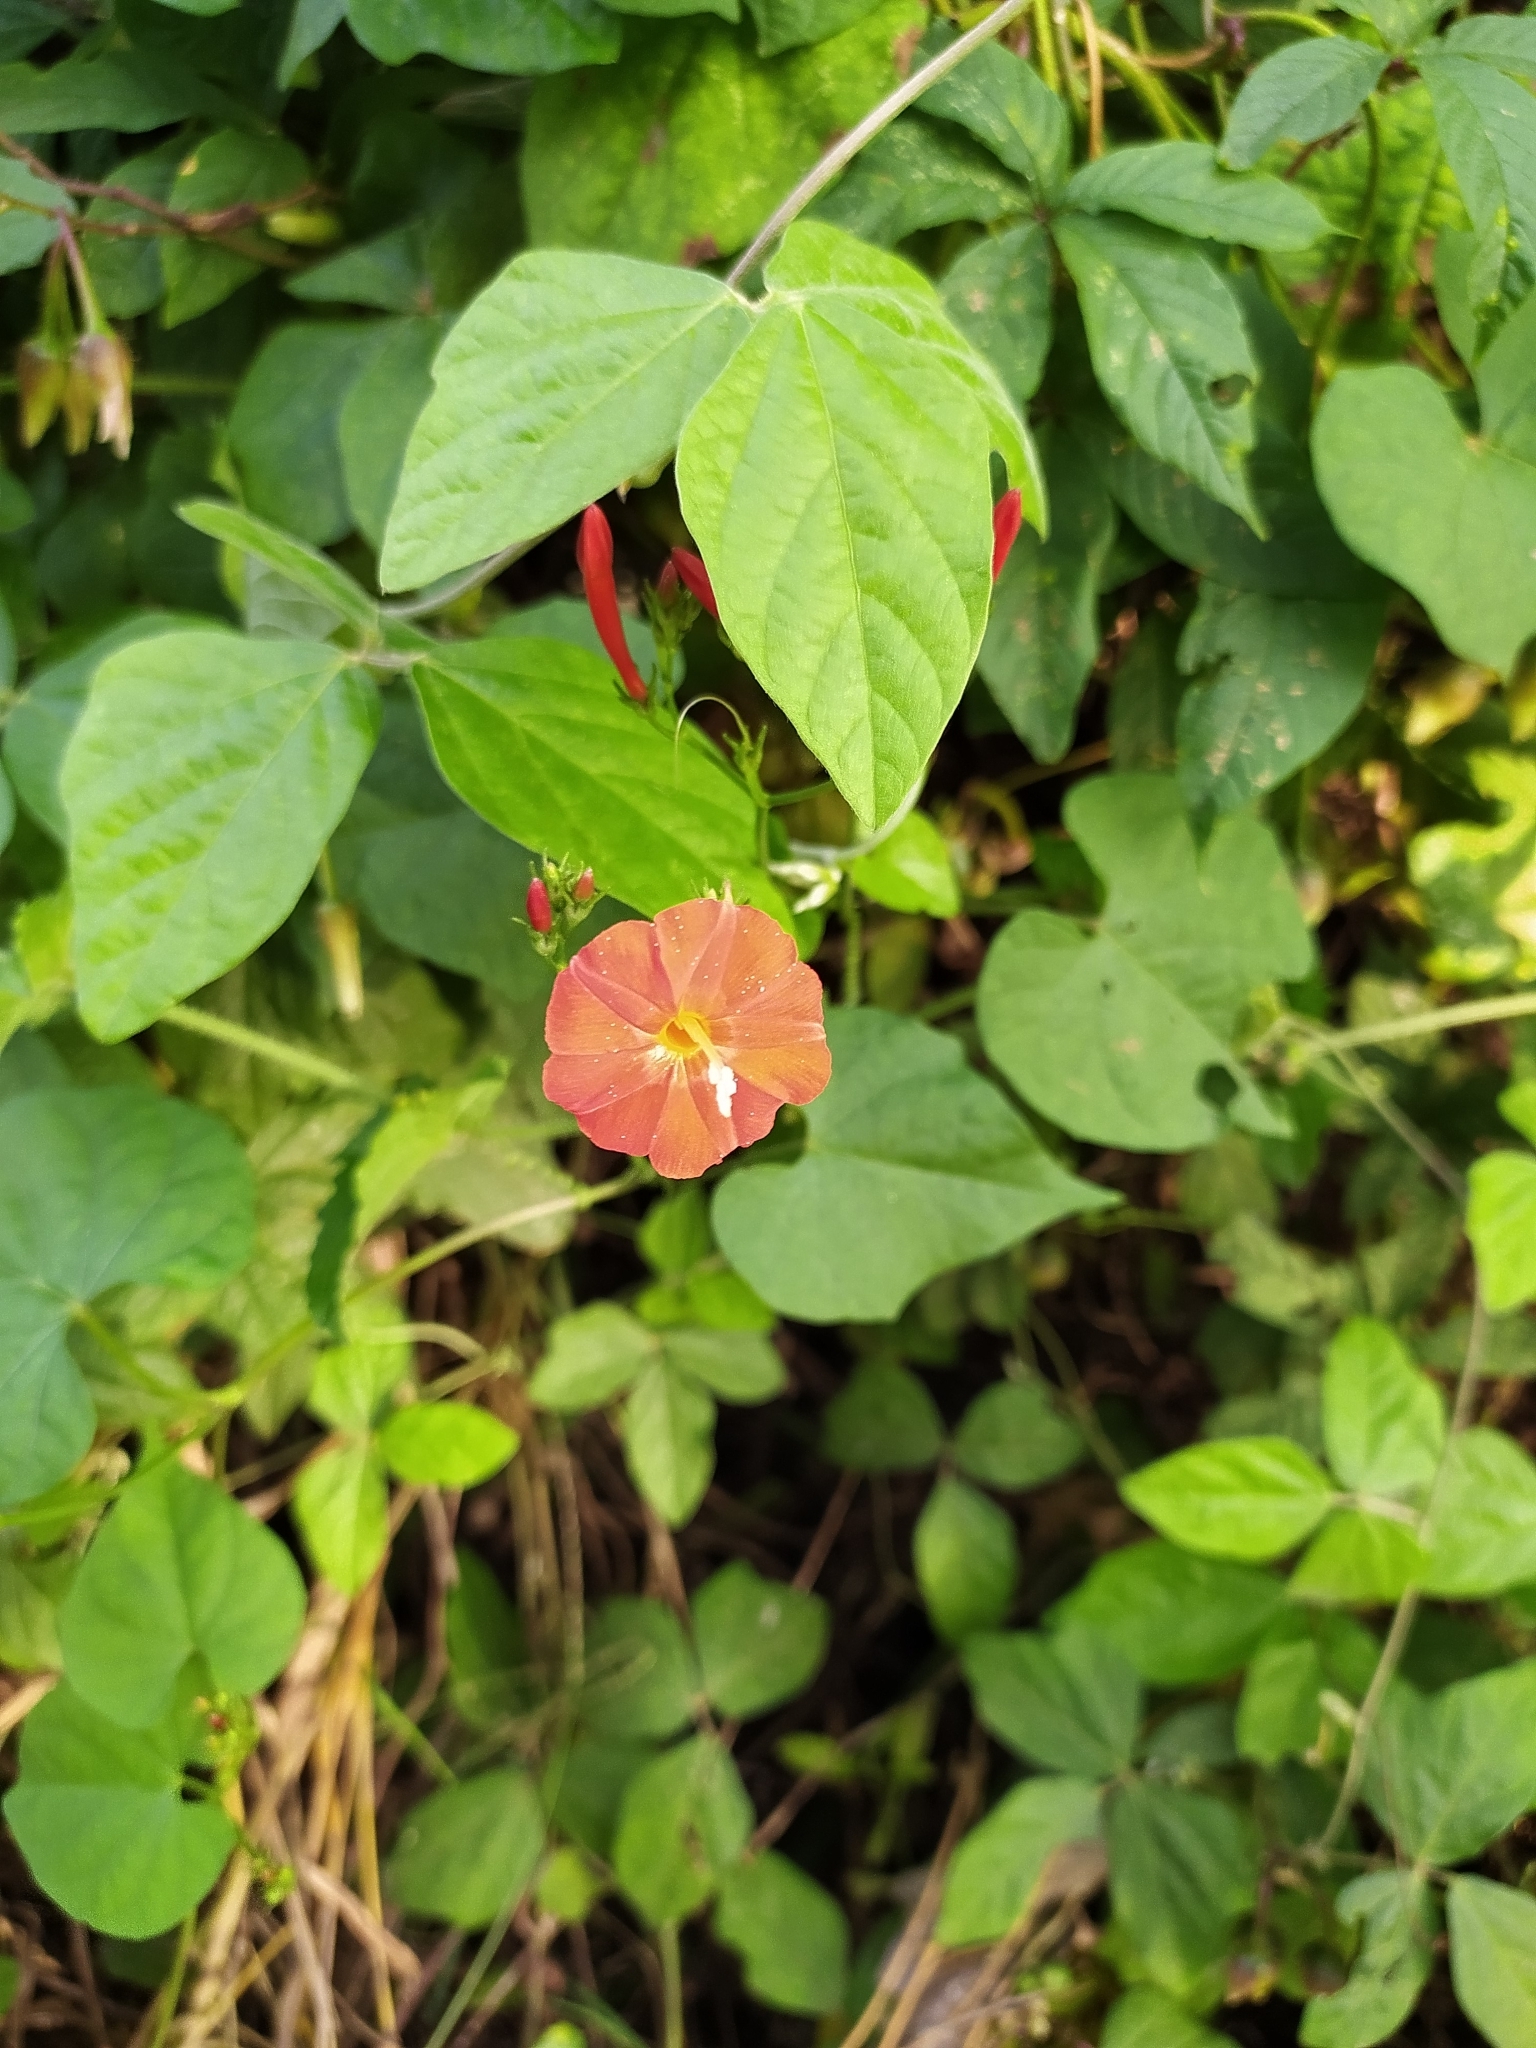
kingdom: Plantae
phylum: Tracheophyta
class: Magnoliopsida
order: Solanales
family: Convolvulaceae
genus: Ipomoea
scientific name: Ipomoea hederifolia
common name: Ivy-leaf morning-glory
